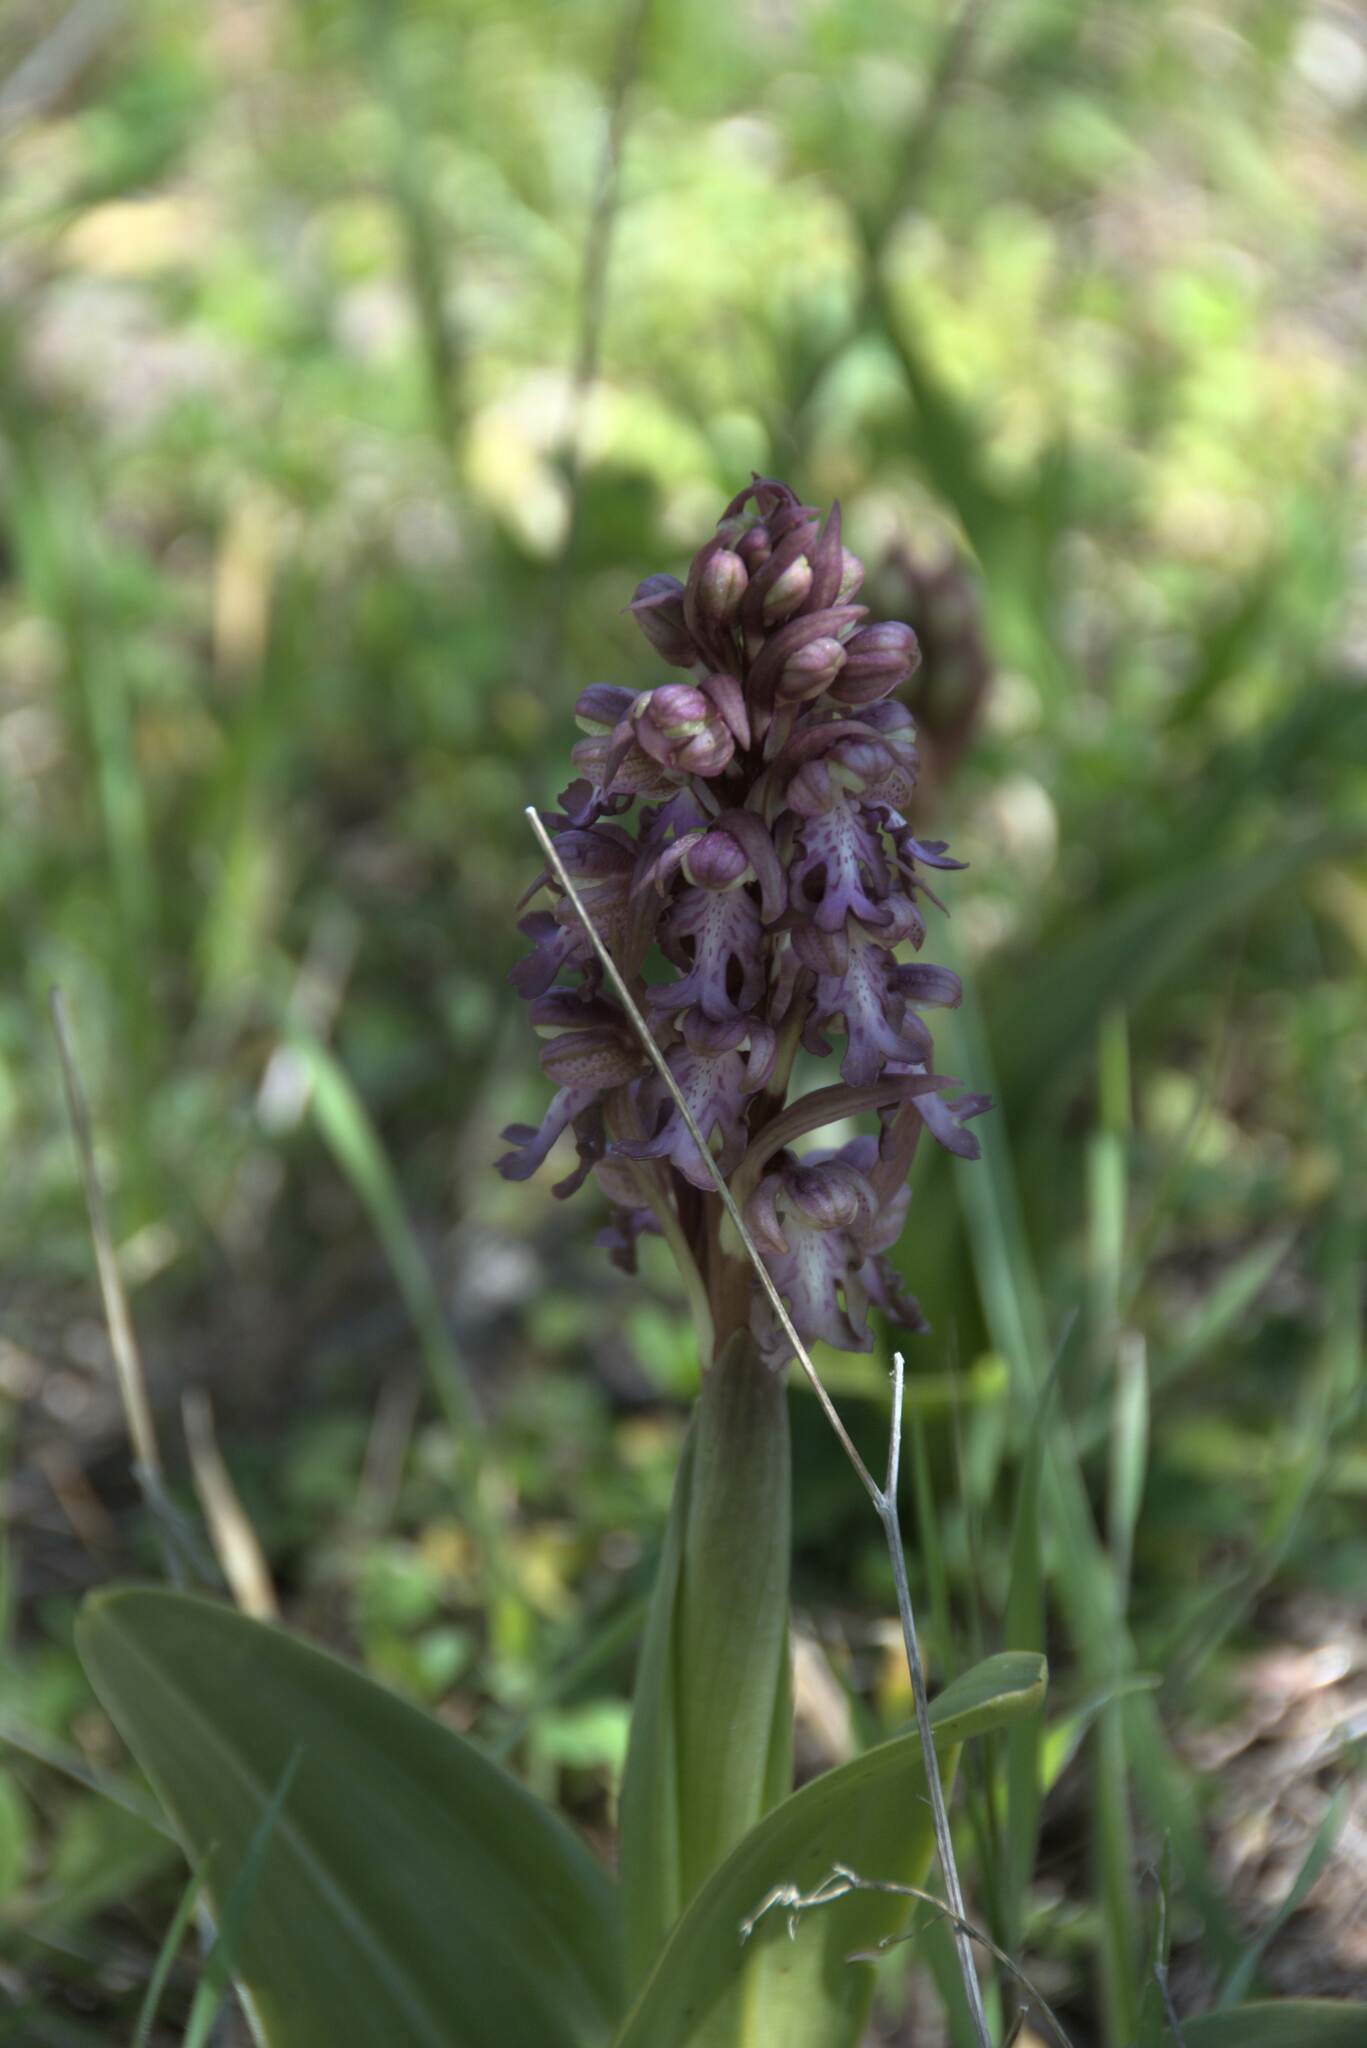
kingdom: Plantae
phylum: Tracheophyta
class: Liliopsida
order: Asparagales
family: Orchidaceae
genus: Himantoglossum
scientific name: Himantoglossum robertianum
